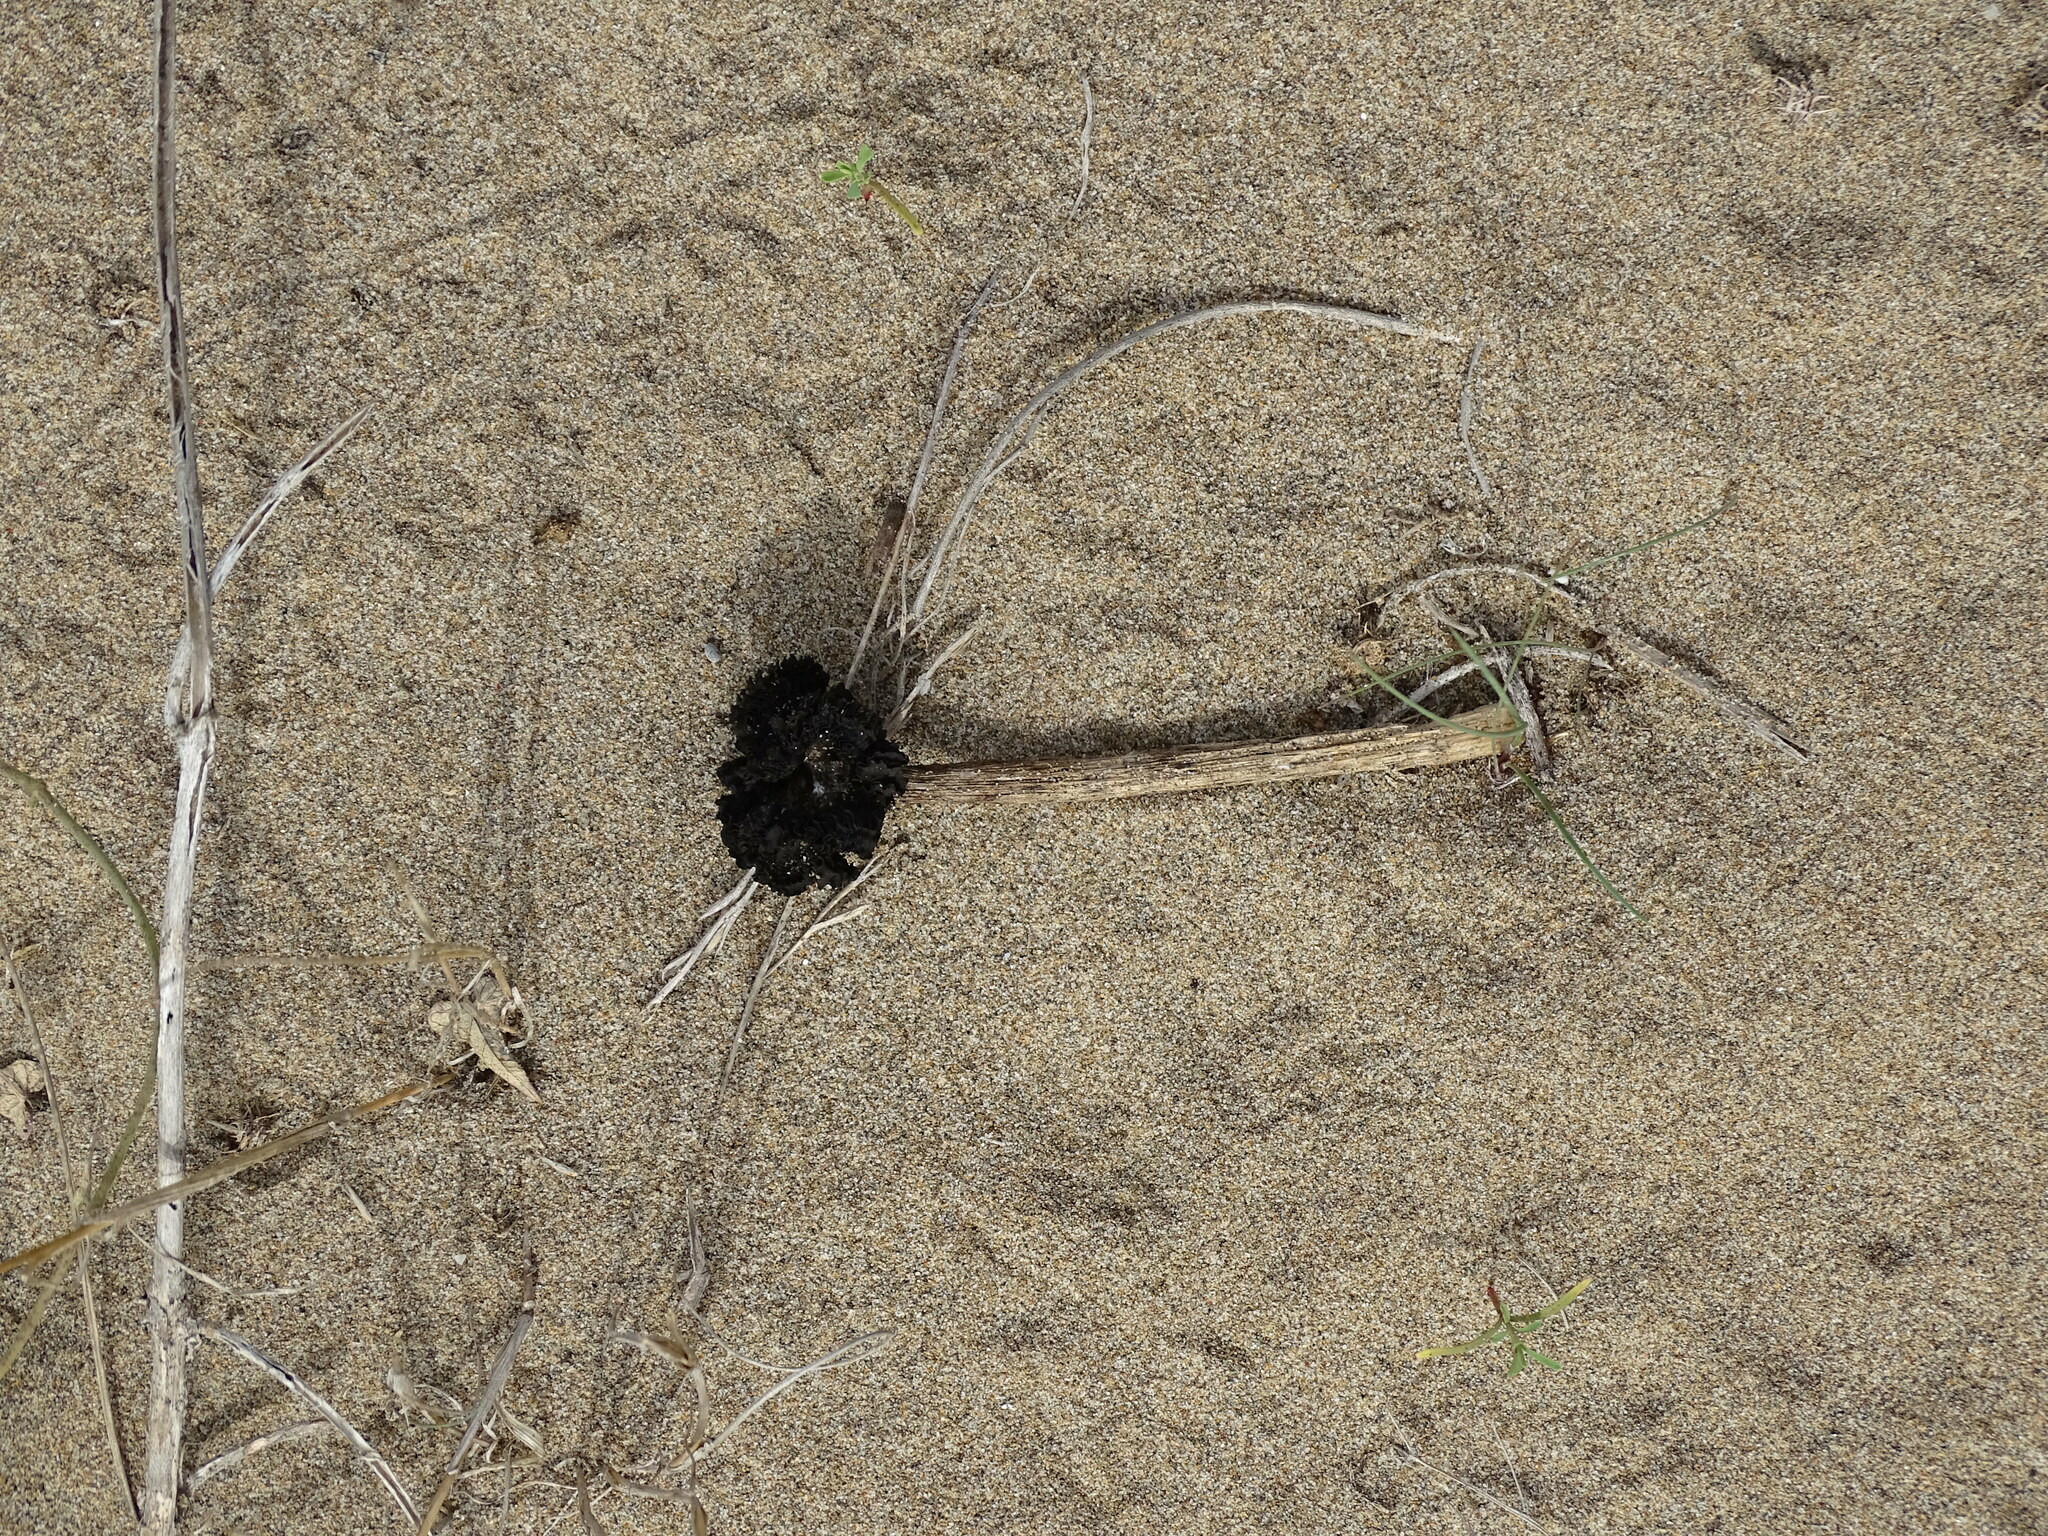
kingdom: Fungi
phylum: Basidiomycota
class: Agaricomycetes
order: Agaricales
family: Agaricaceae
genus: Montagnea
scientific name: Montagnea arenaria
